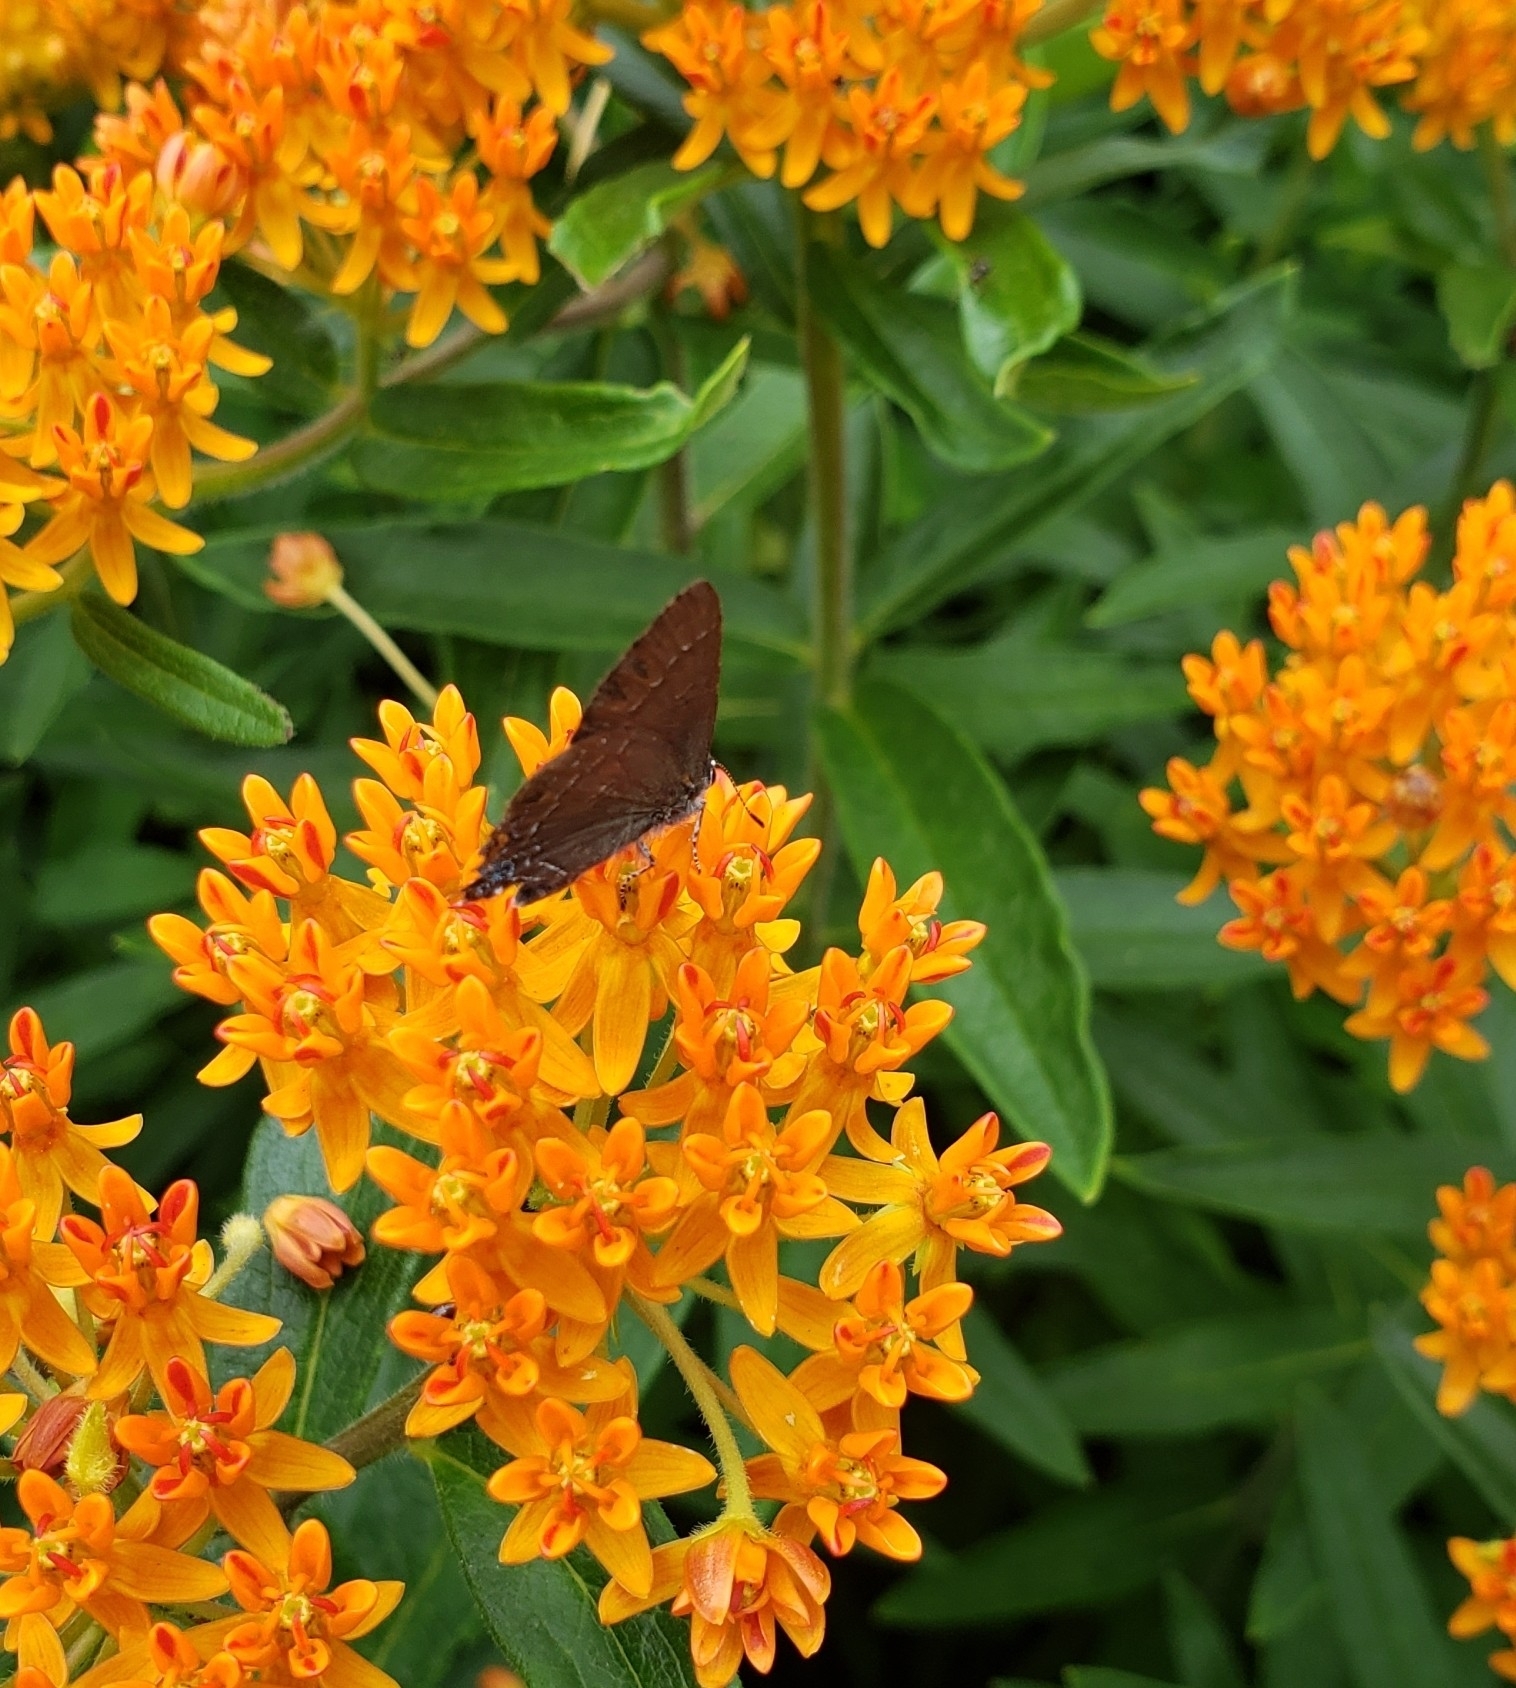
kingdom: Animalia
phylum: Arthropoda
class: Insecta
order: Lepidoptera
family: Lycaenidae
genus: Satyrium
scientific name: Satyrium calanus
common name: Banded hairstreak
